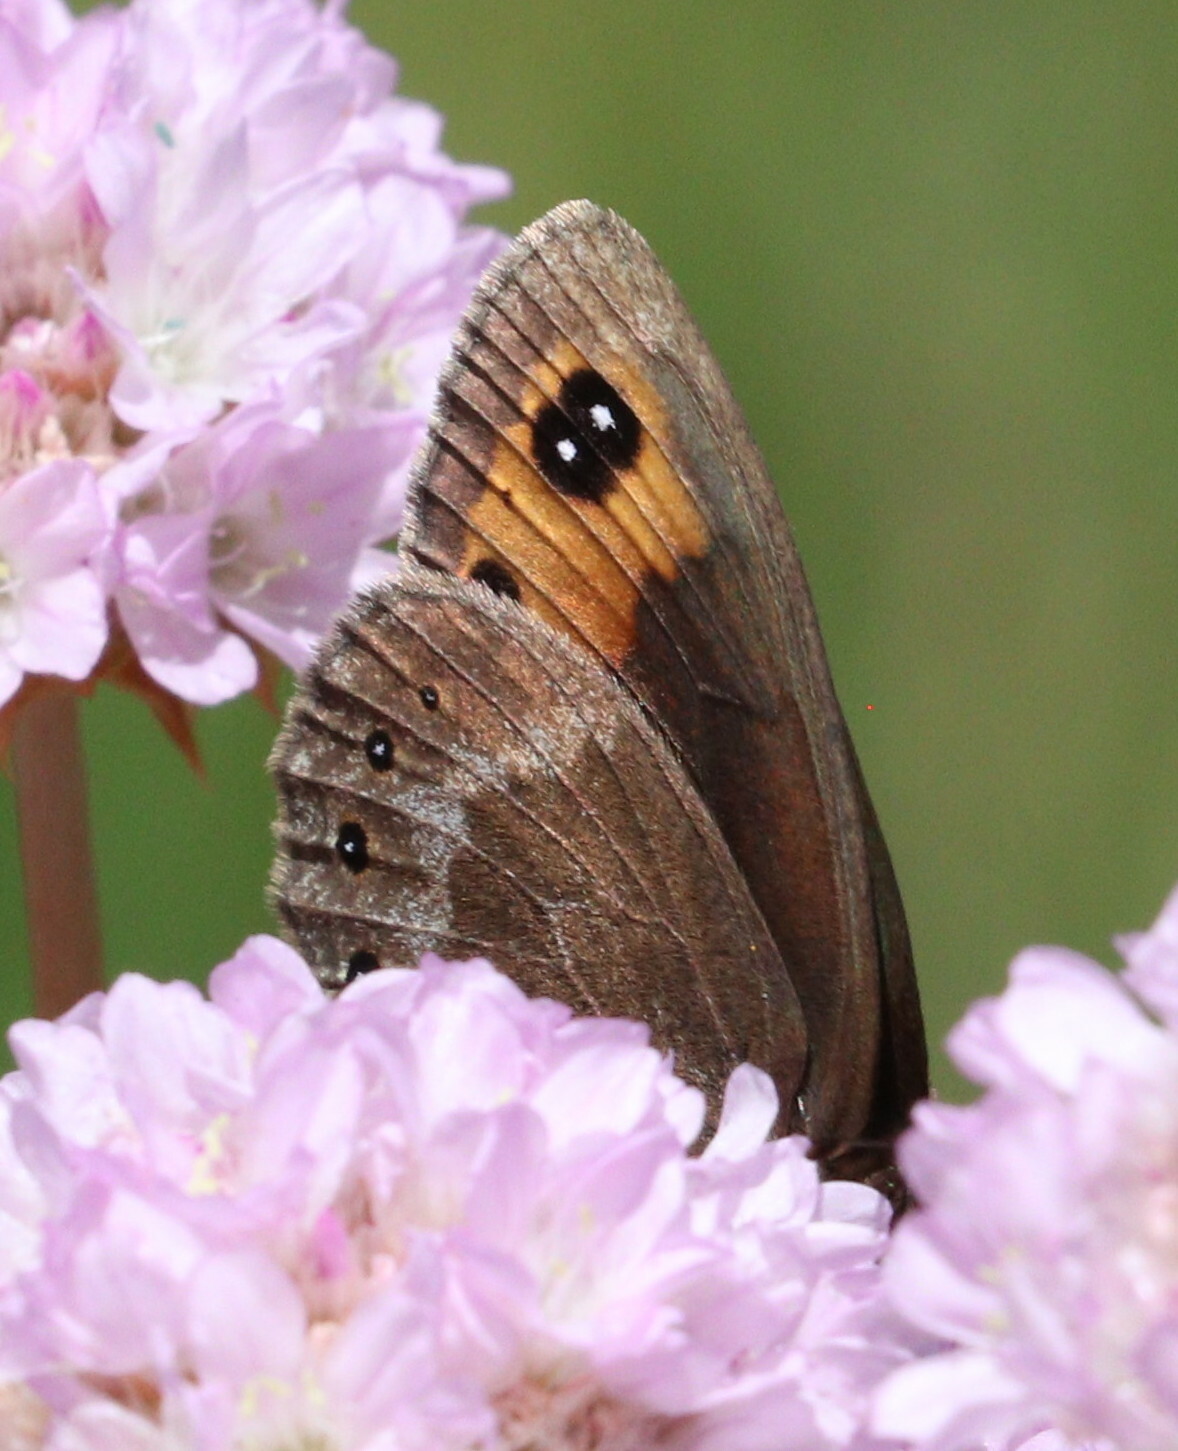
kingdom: Animalia
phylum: Arthropoda
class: Insecta
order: Lepidoptera
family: Nymphalidae
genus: Erebia
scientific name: Erebia meolans
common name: Piedmont ringlet
